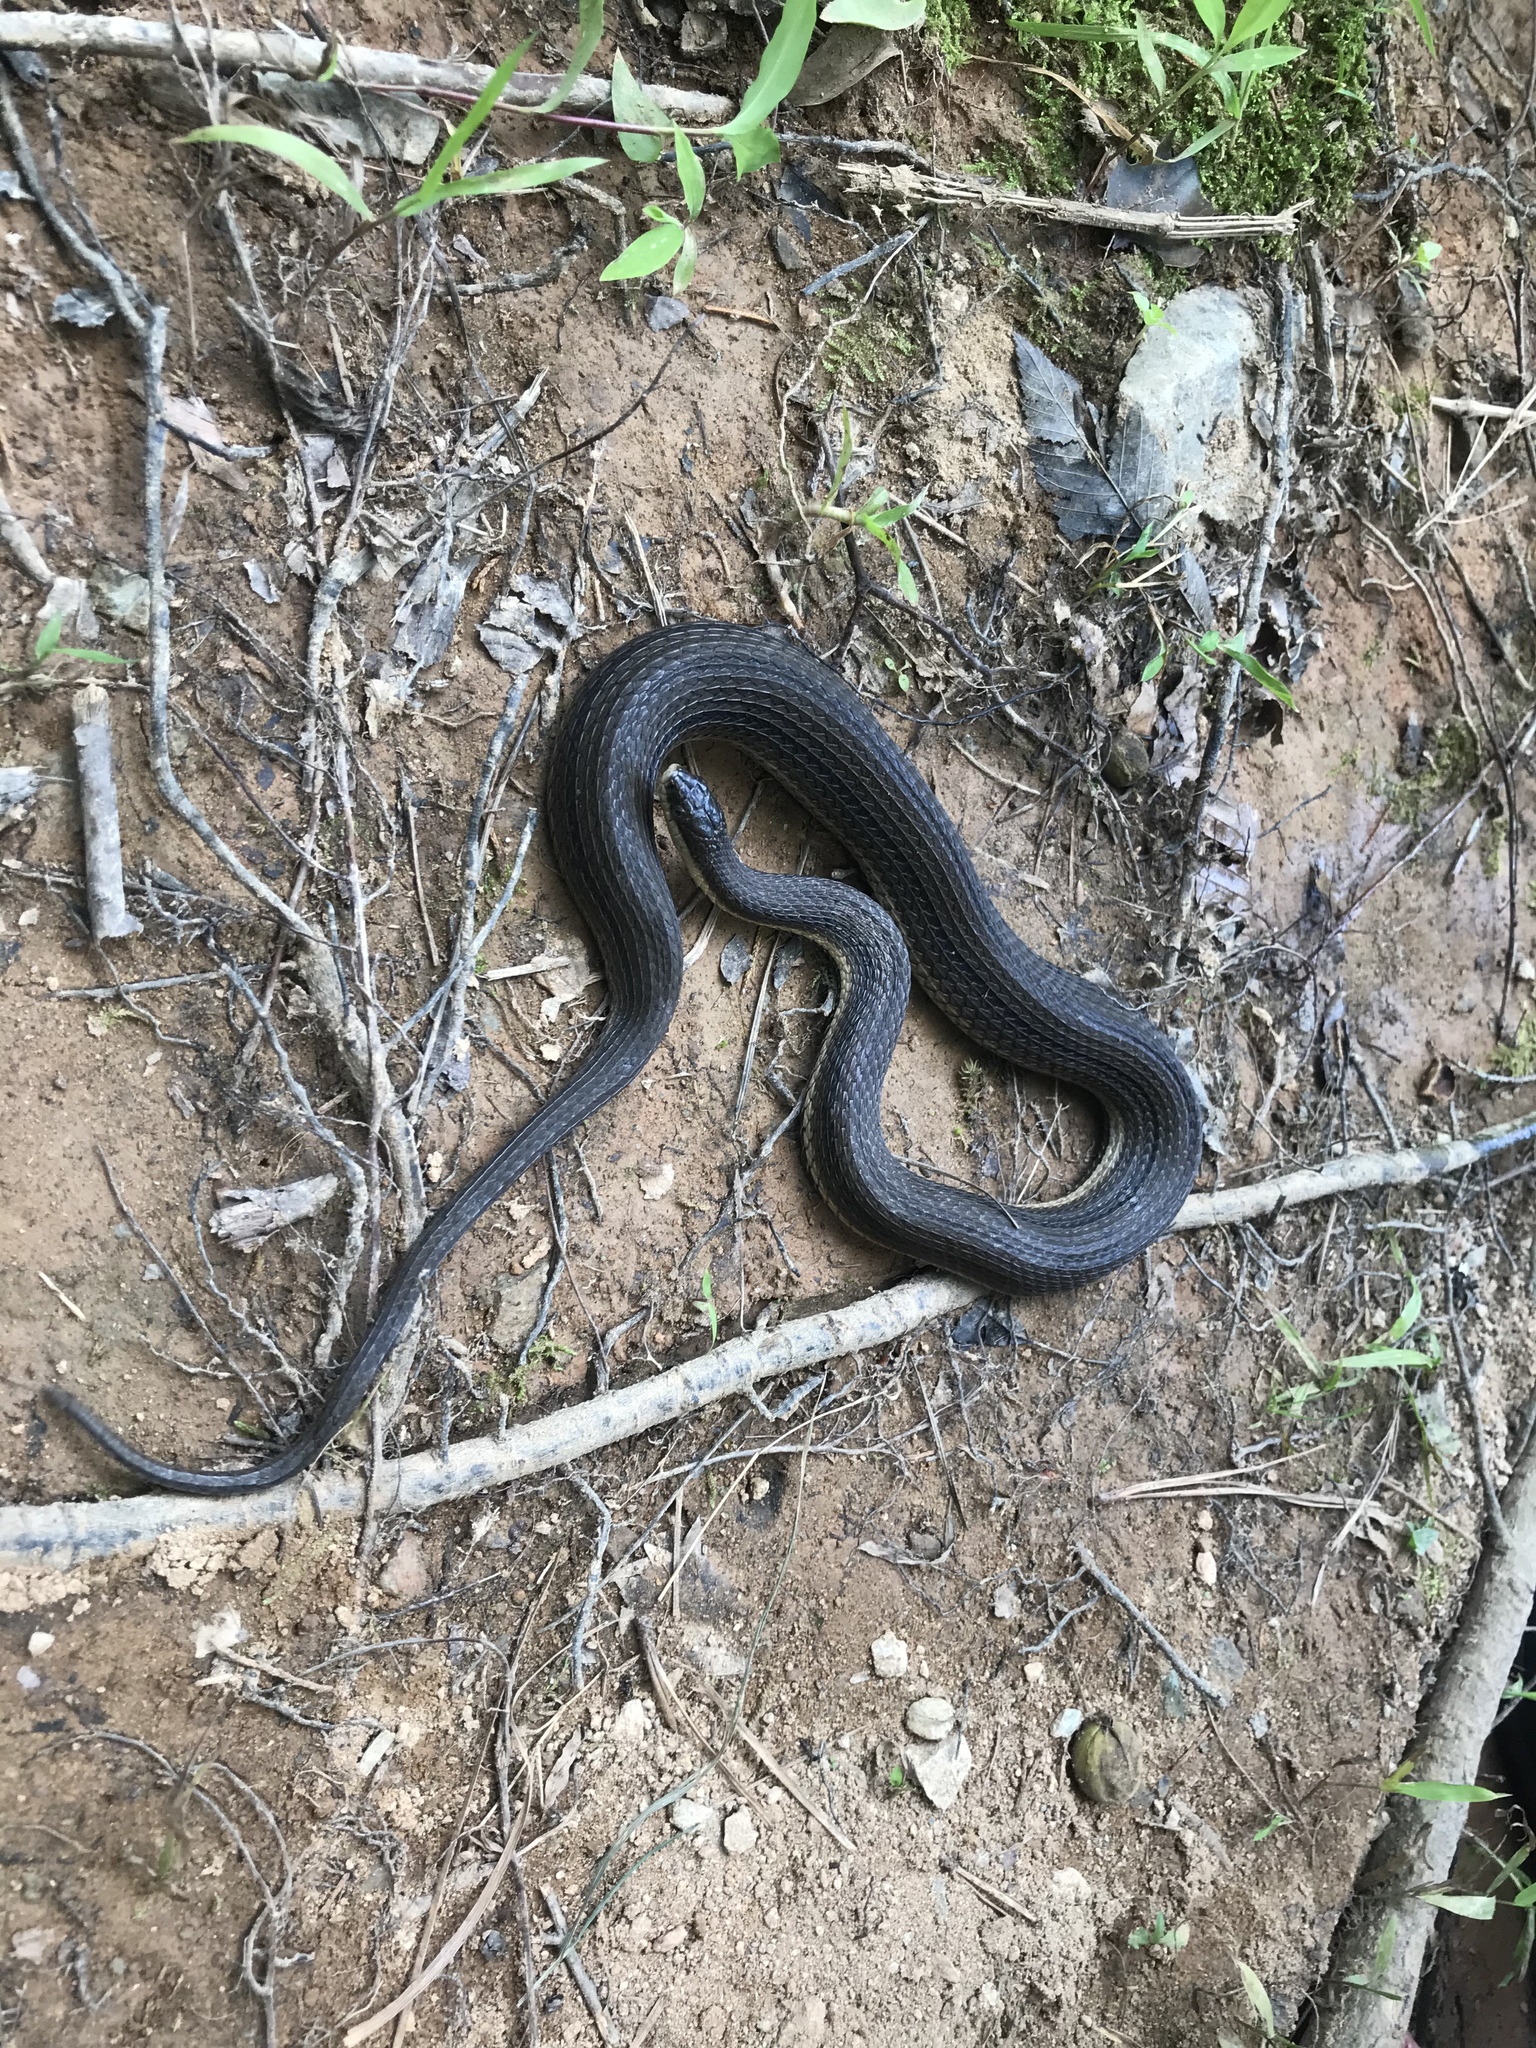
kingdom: Animalia
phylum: Chordata
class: Squamata
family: Colubridae
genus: Regina
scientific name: Regina septemvittata
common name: Queen snake
